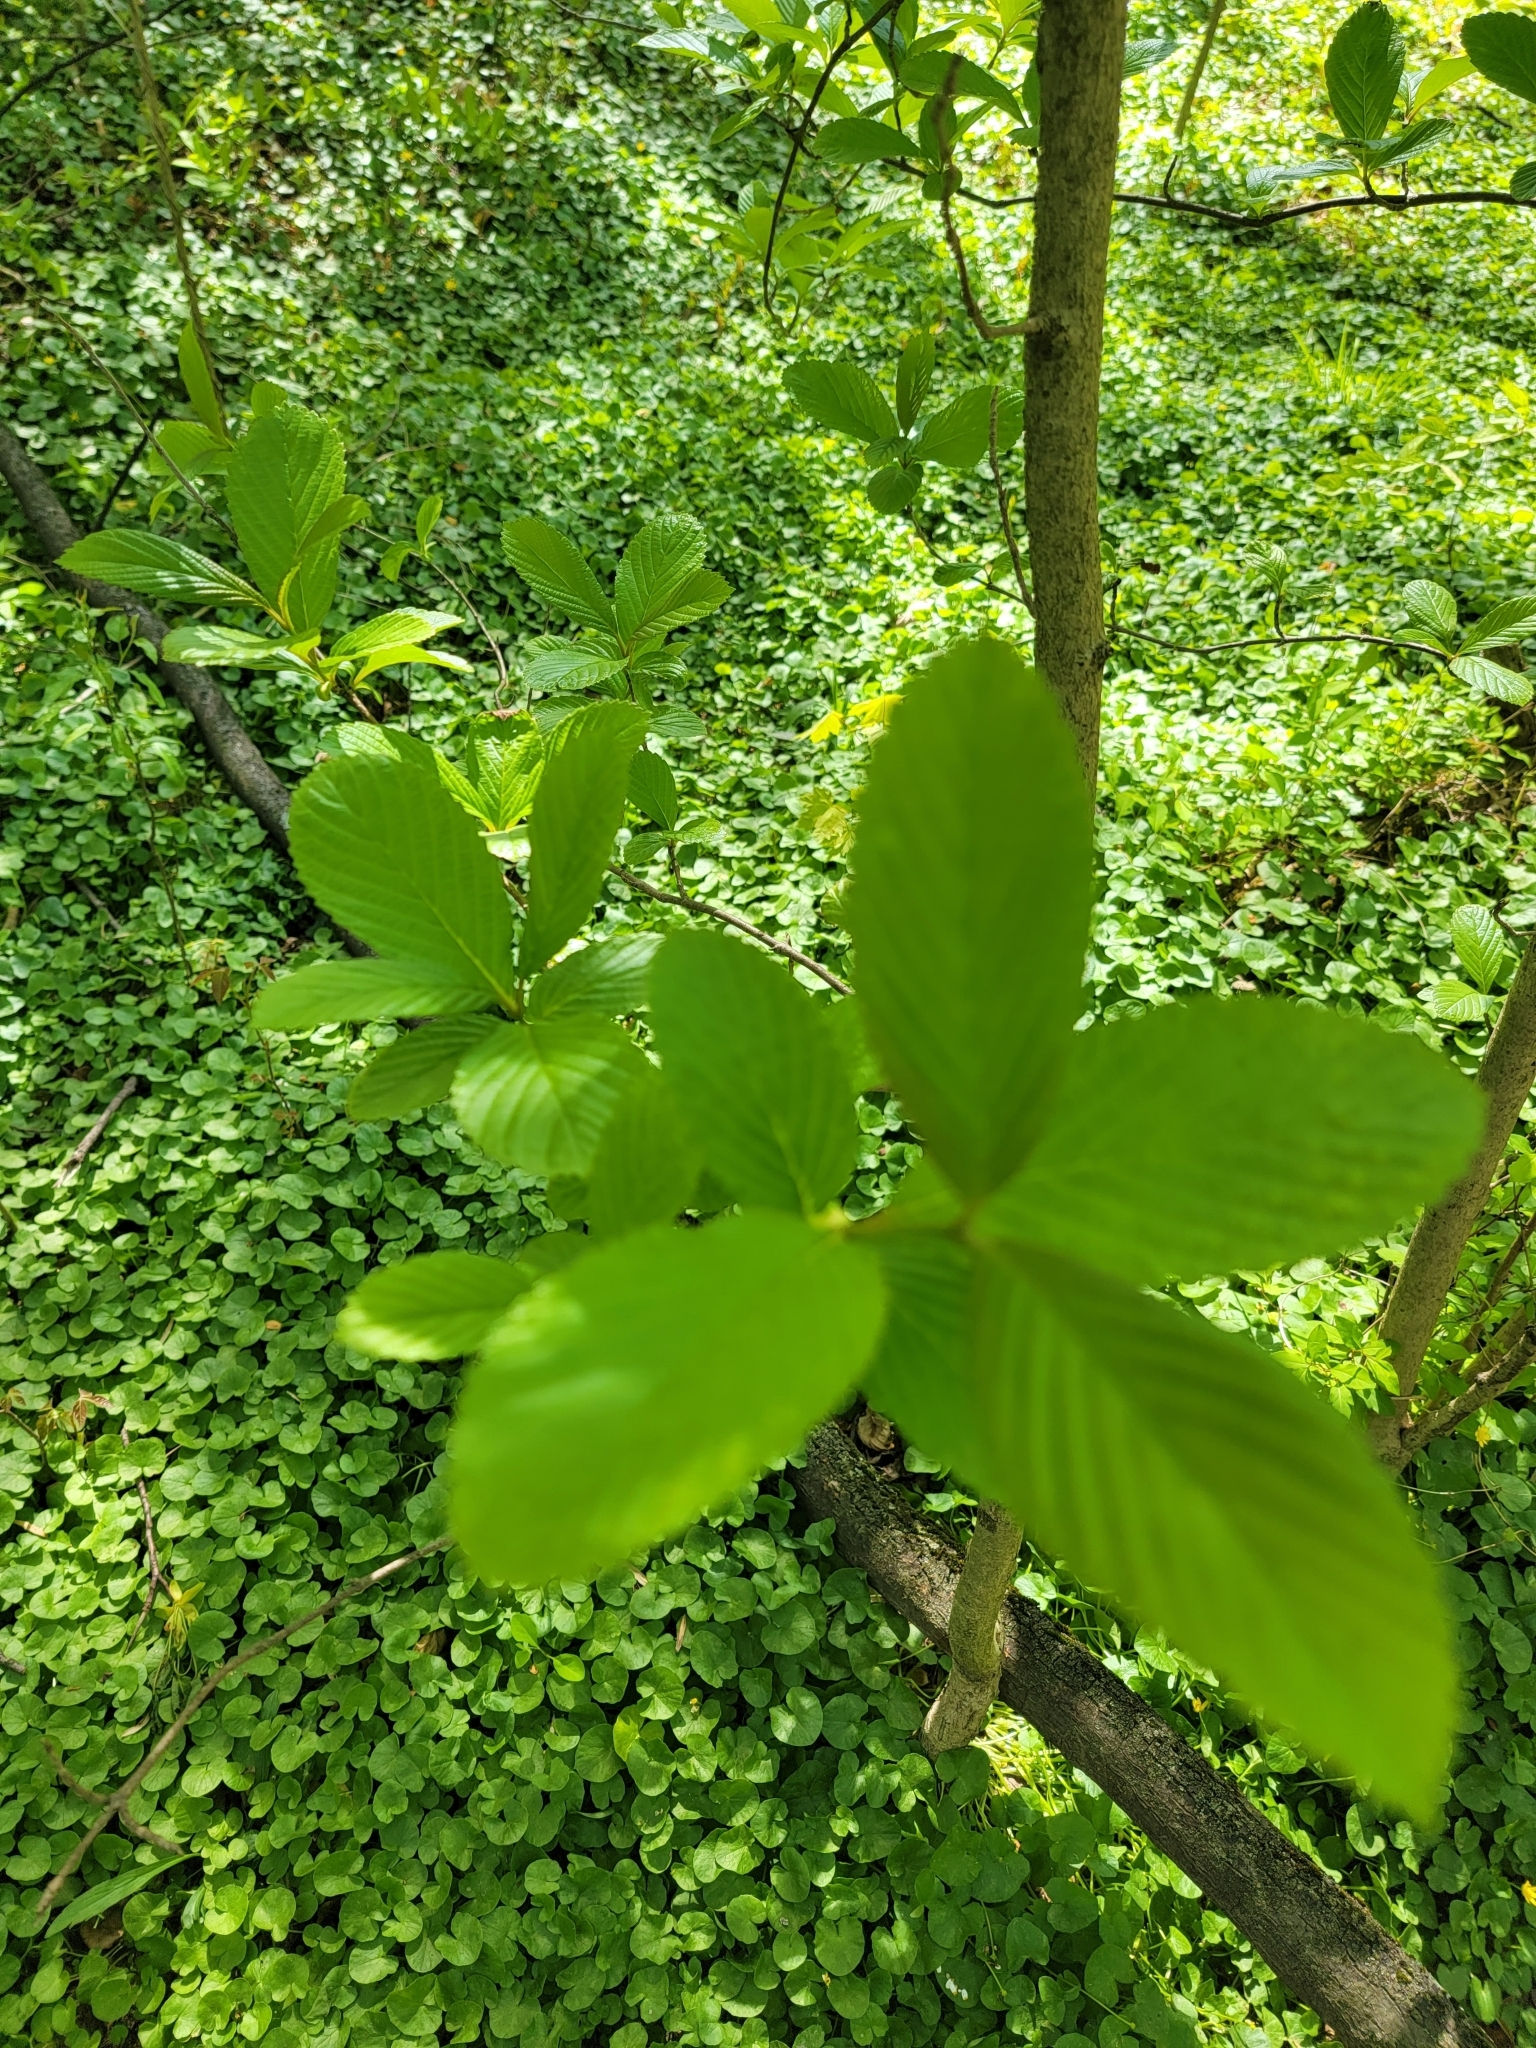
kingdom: Plantae
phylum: Tracheophyta
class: Magnoliopsida
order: Dipsacales
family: Viburnaceae
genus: Viburnum
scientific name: Viburnum sieboldii
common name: Siebold's arrowwood
